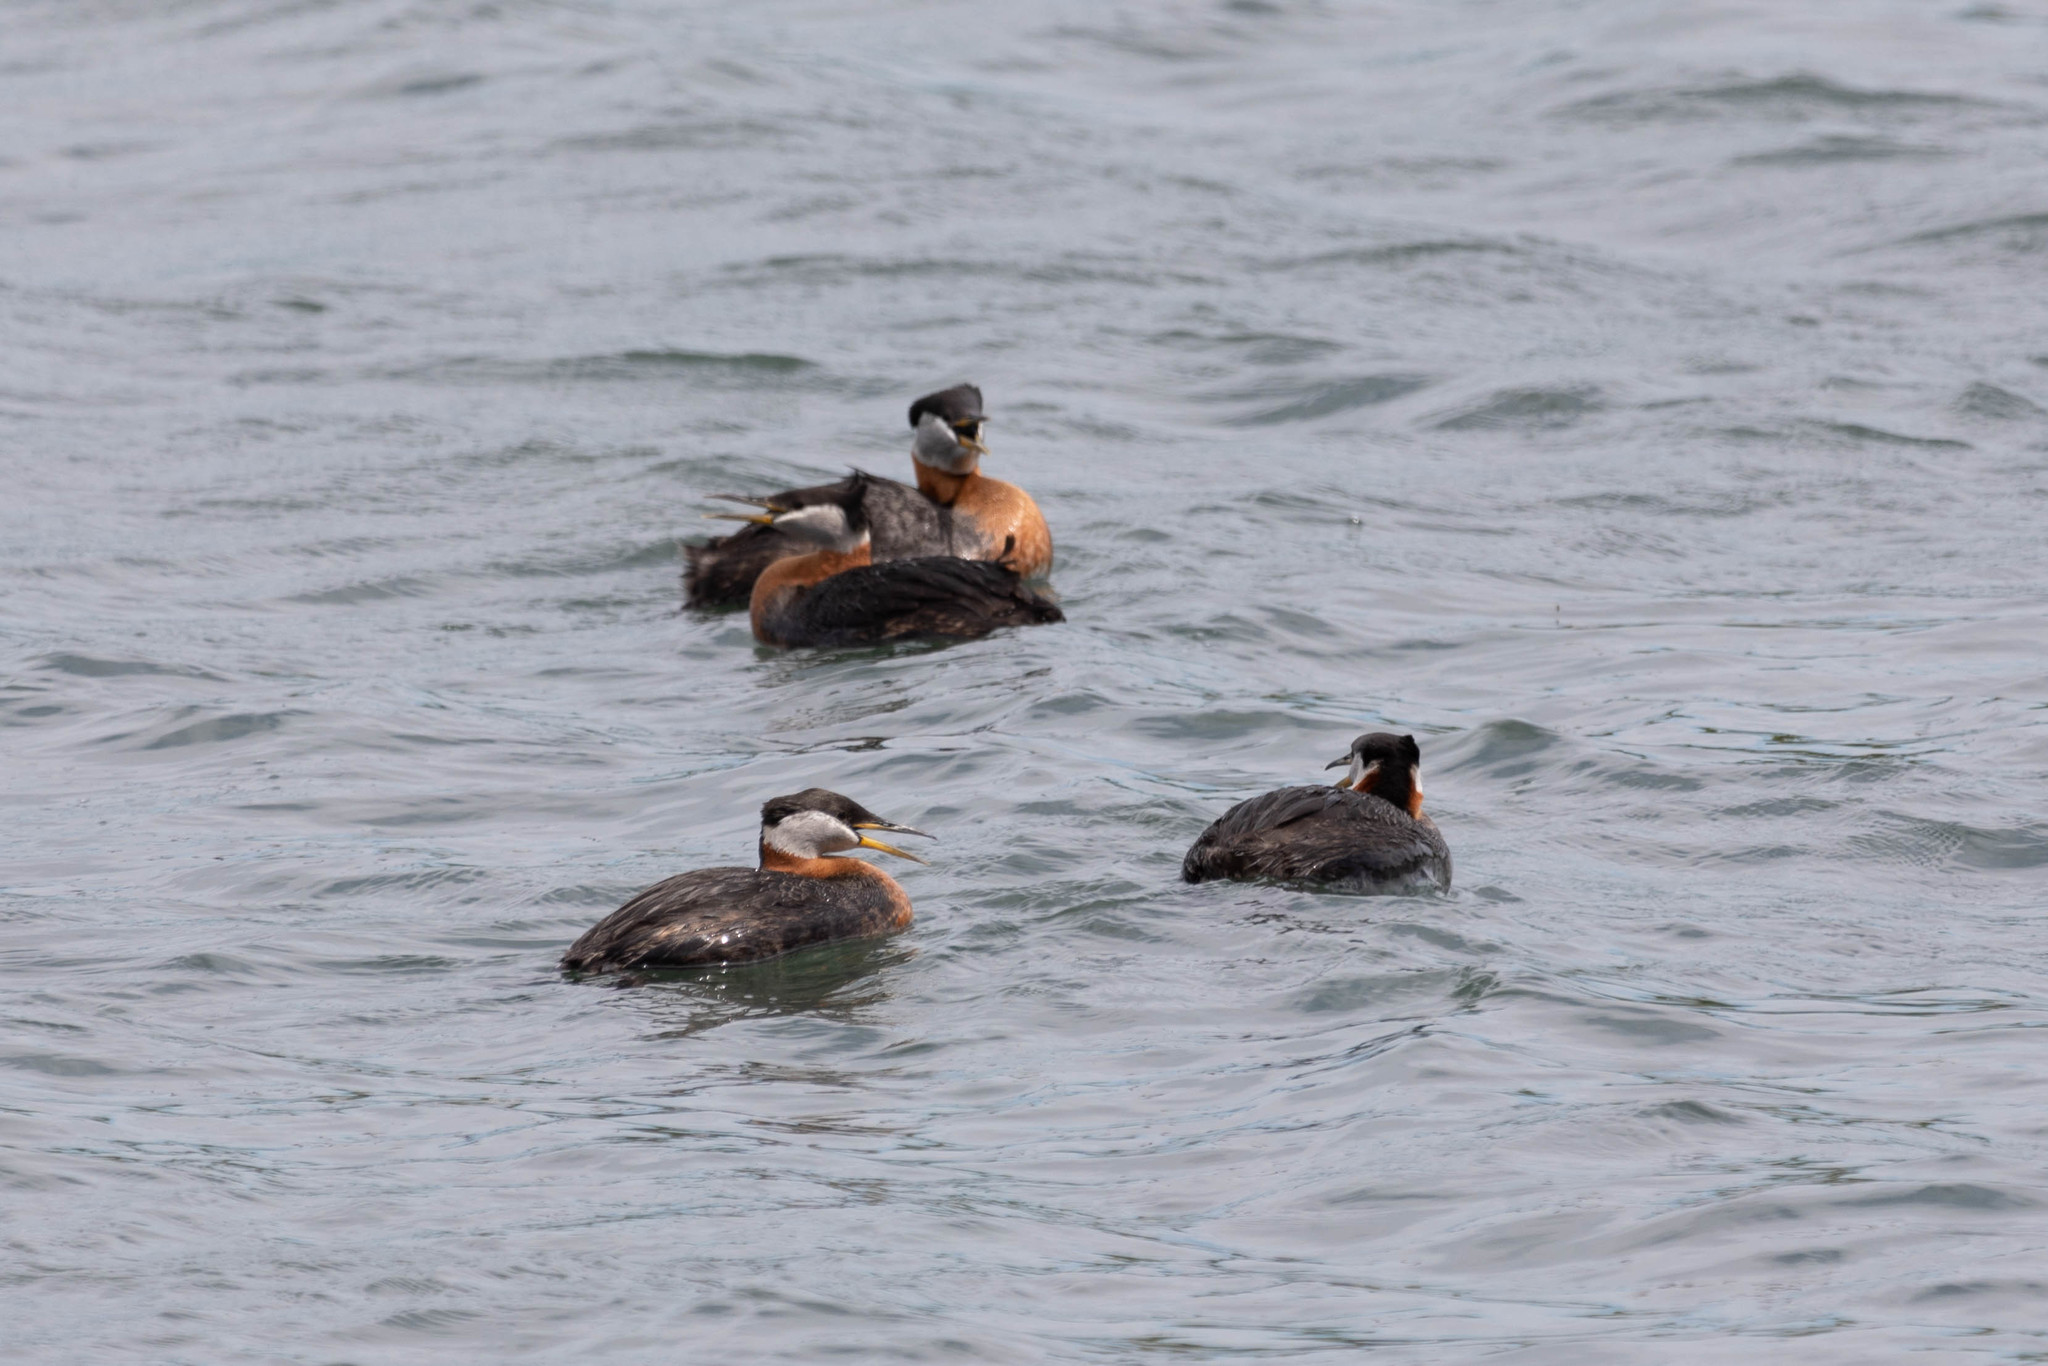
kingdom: Animalia
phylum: Chordata
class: Aves
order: Podicipediformes
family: Podicipedidae
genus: Podiceps
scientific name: Podiceps grisegena
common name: Red-necked grebe
